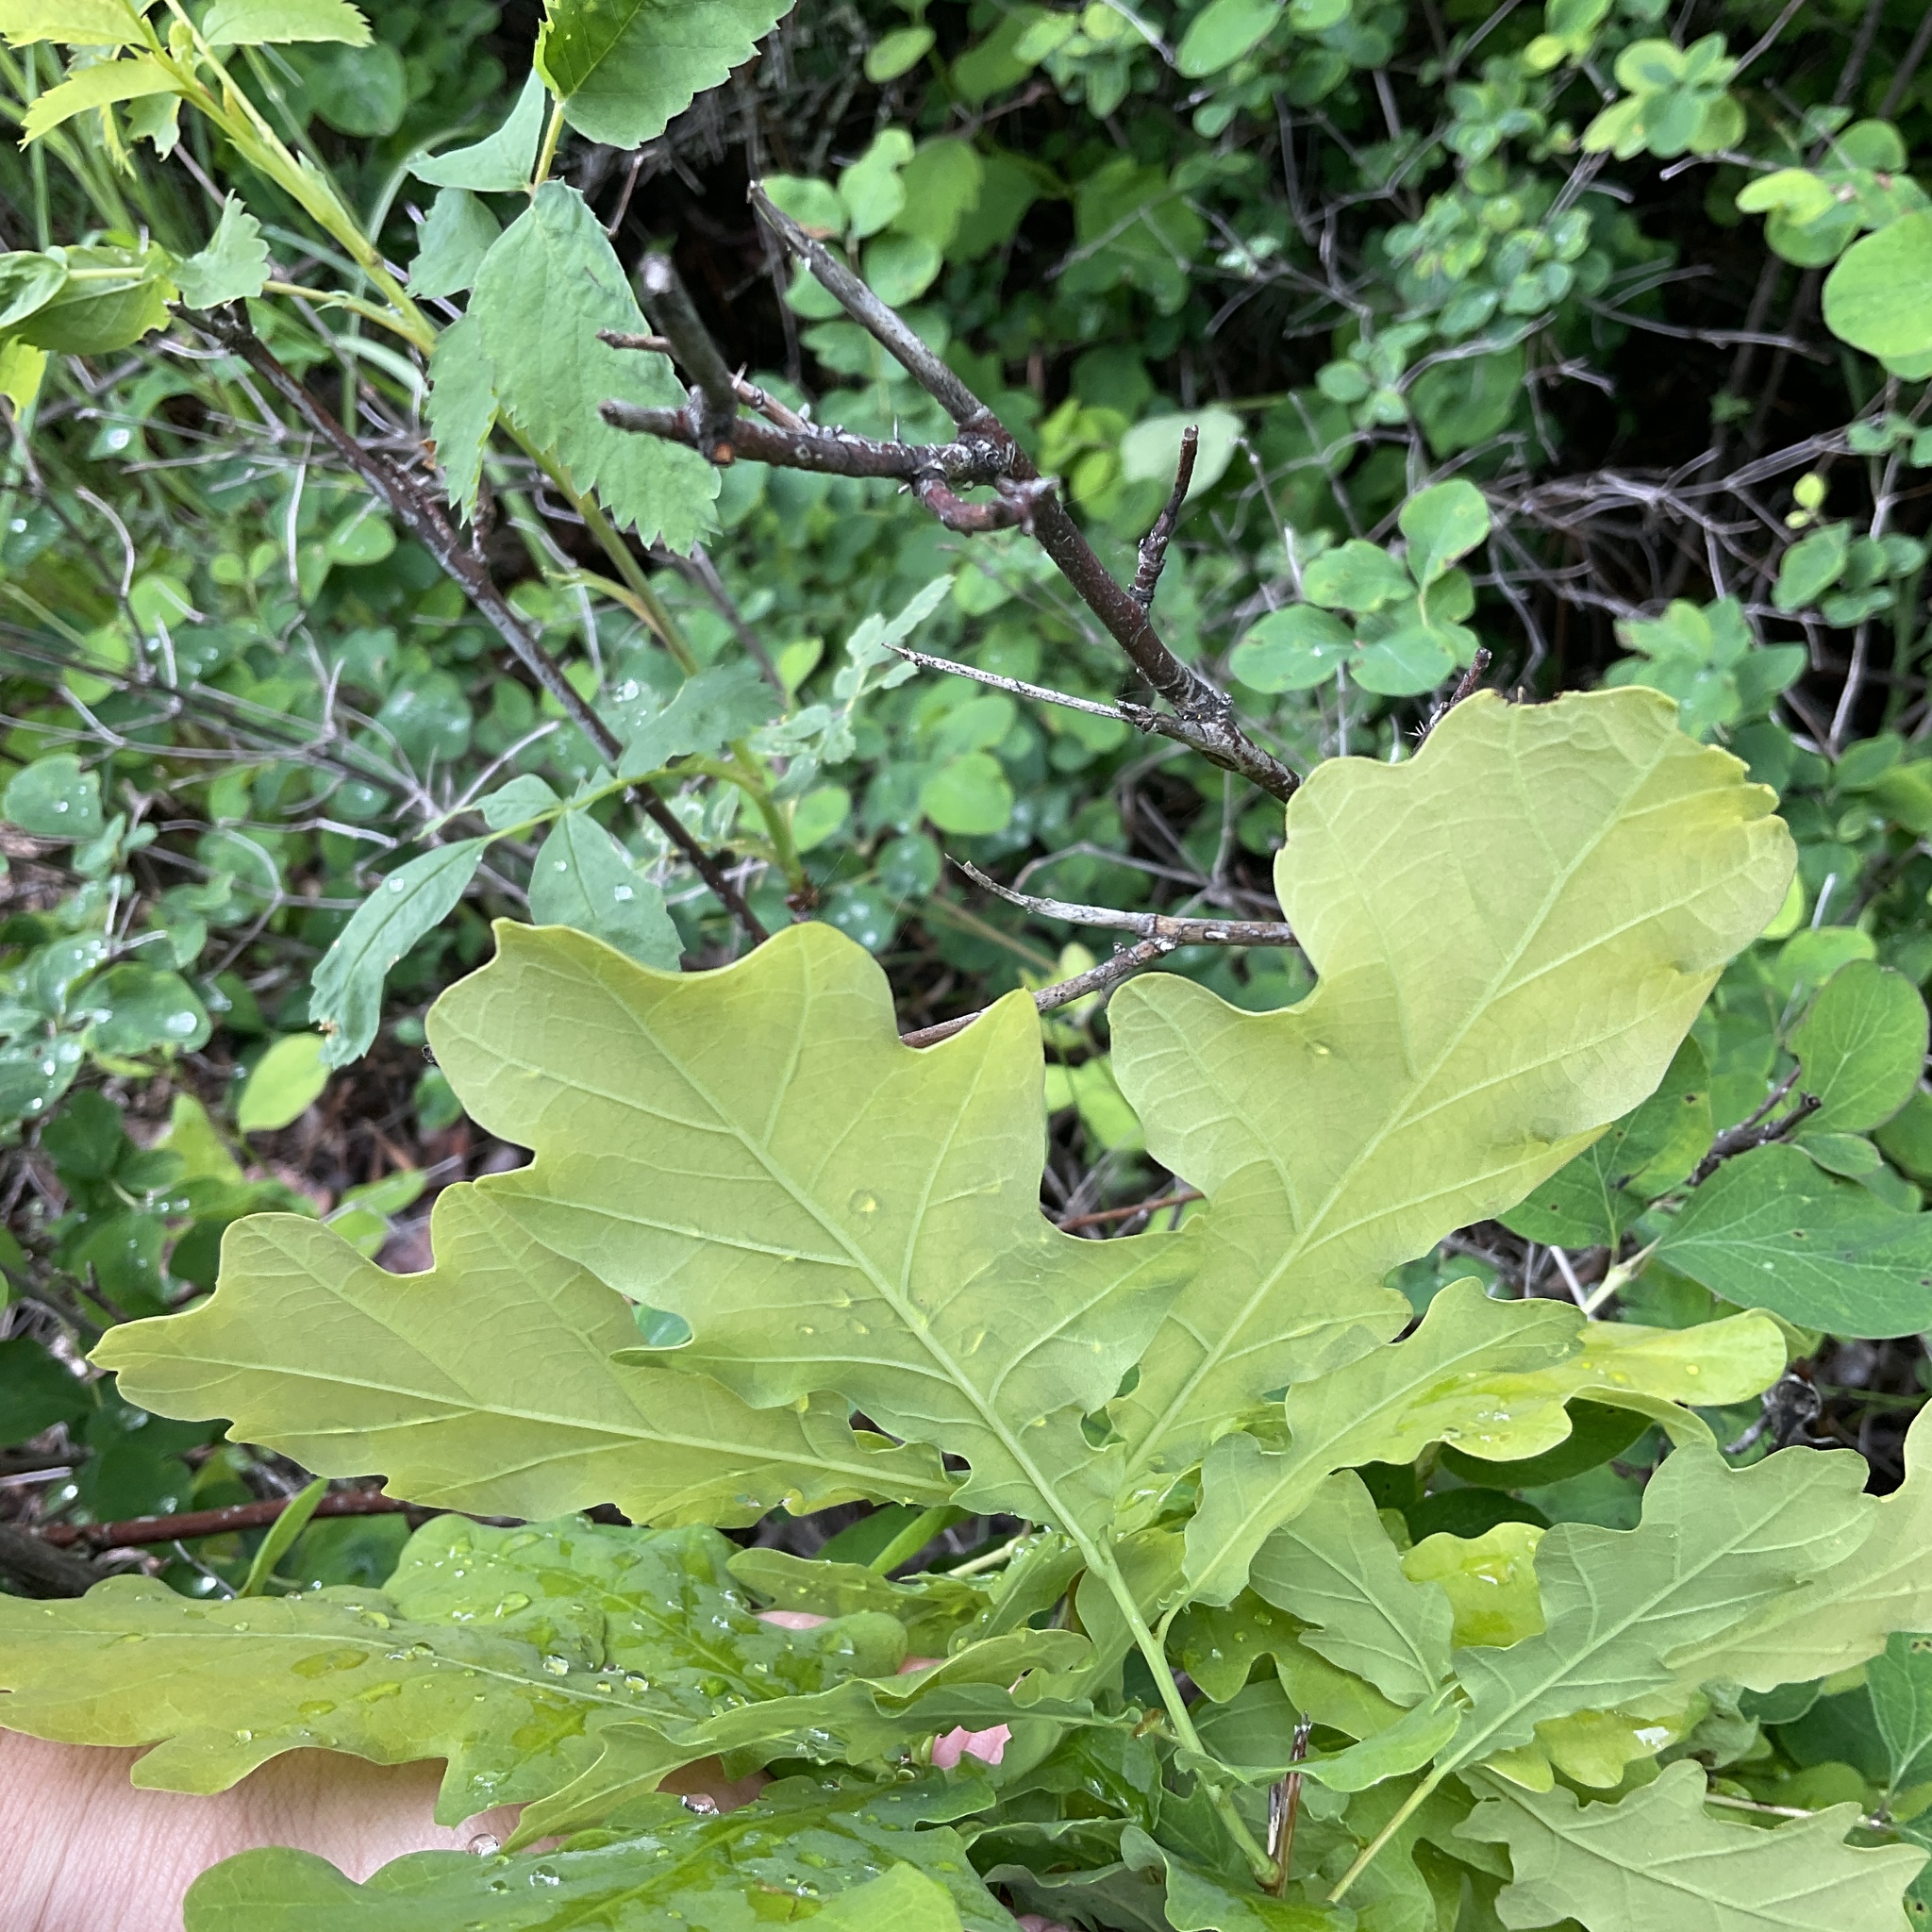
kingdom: Plantae
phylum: Tracheophyta
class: Magnoliopsida
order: Fagales
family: Fagaceae
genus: Quercus
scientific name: Quercus robur
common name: Pedunculate oak
